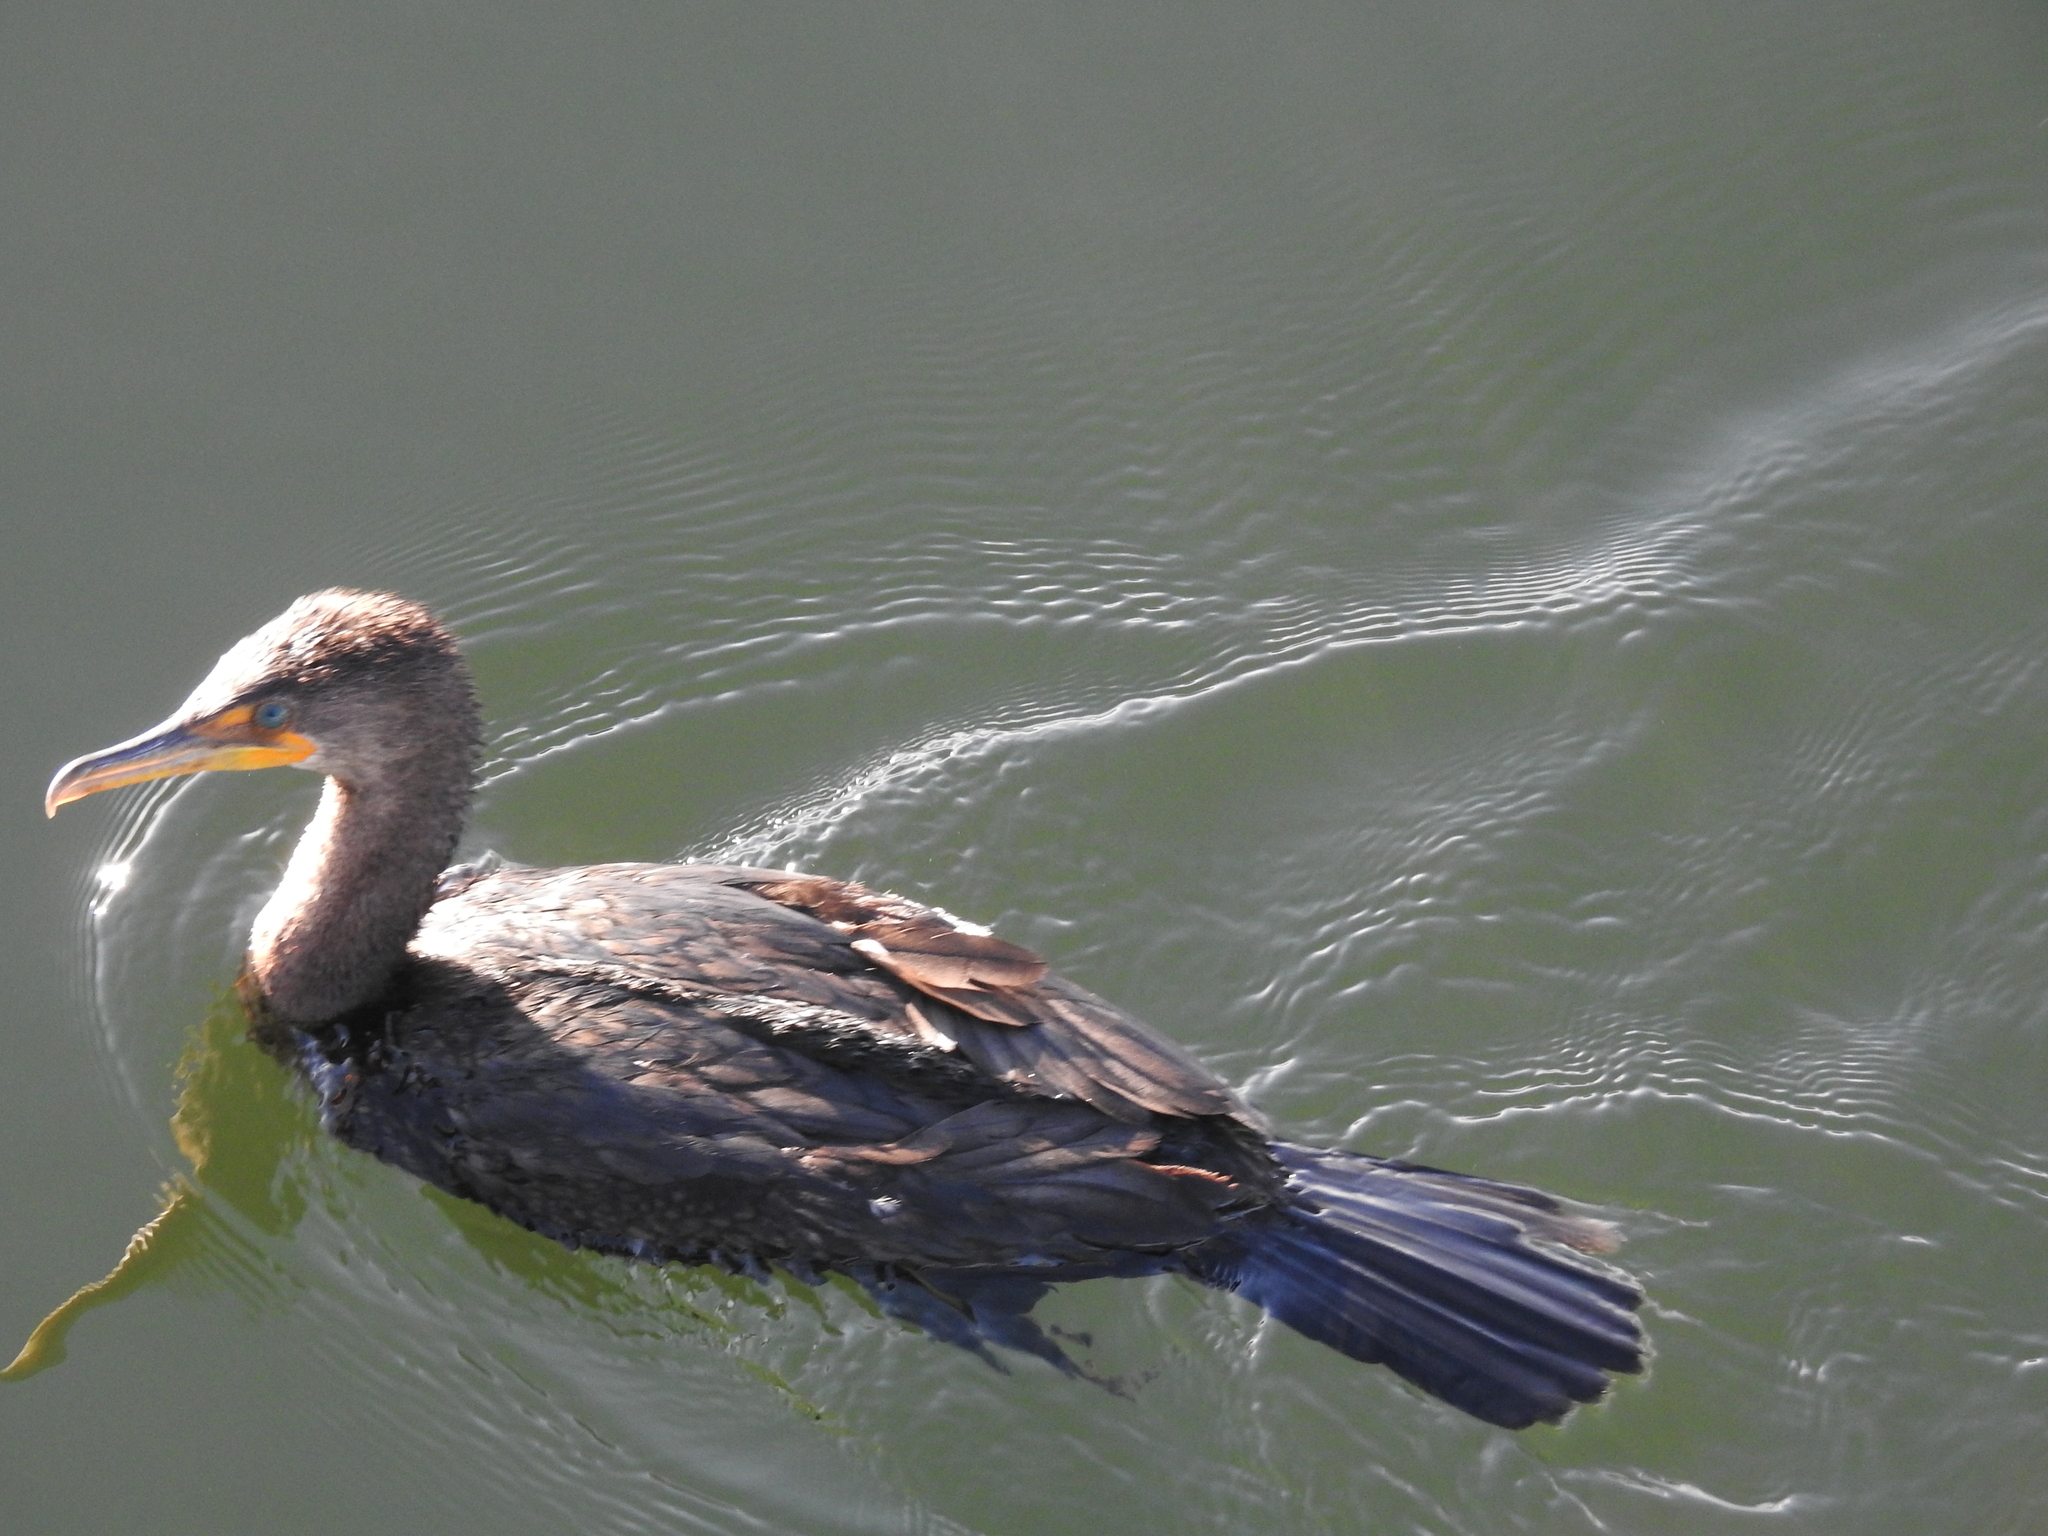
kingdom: Animalia
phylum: Chordata
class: Aves
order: Suliformes
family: Phalacrocoracidae
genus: Phalacrocorax
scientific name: Phalacrocorax auritus
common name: Double-crested cormorant
